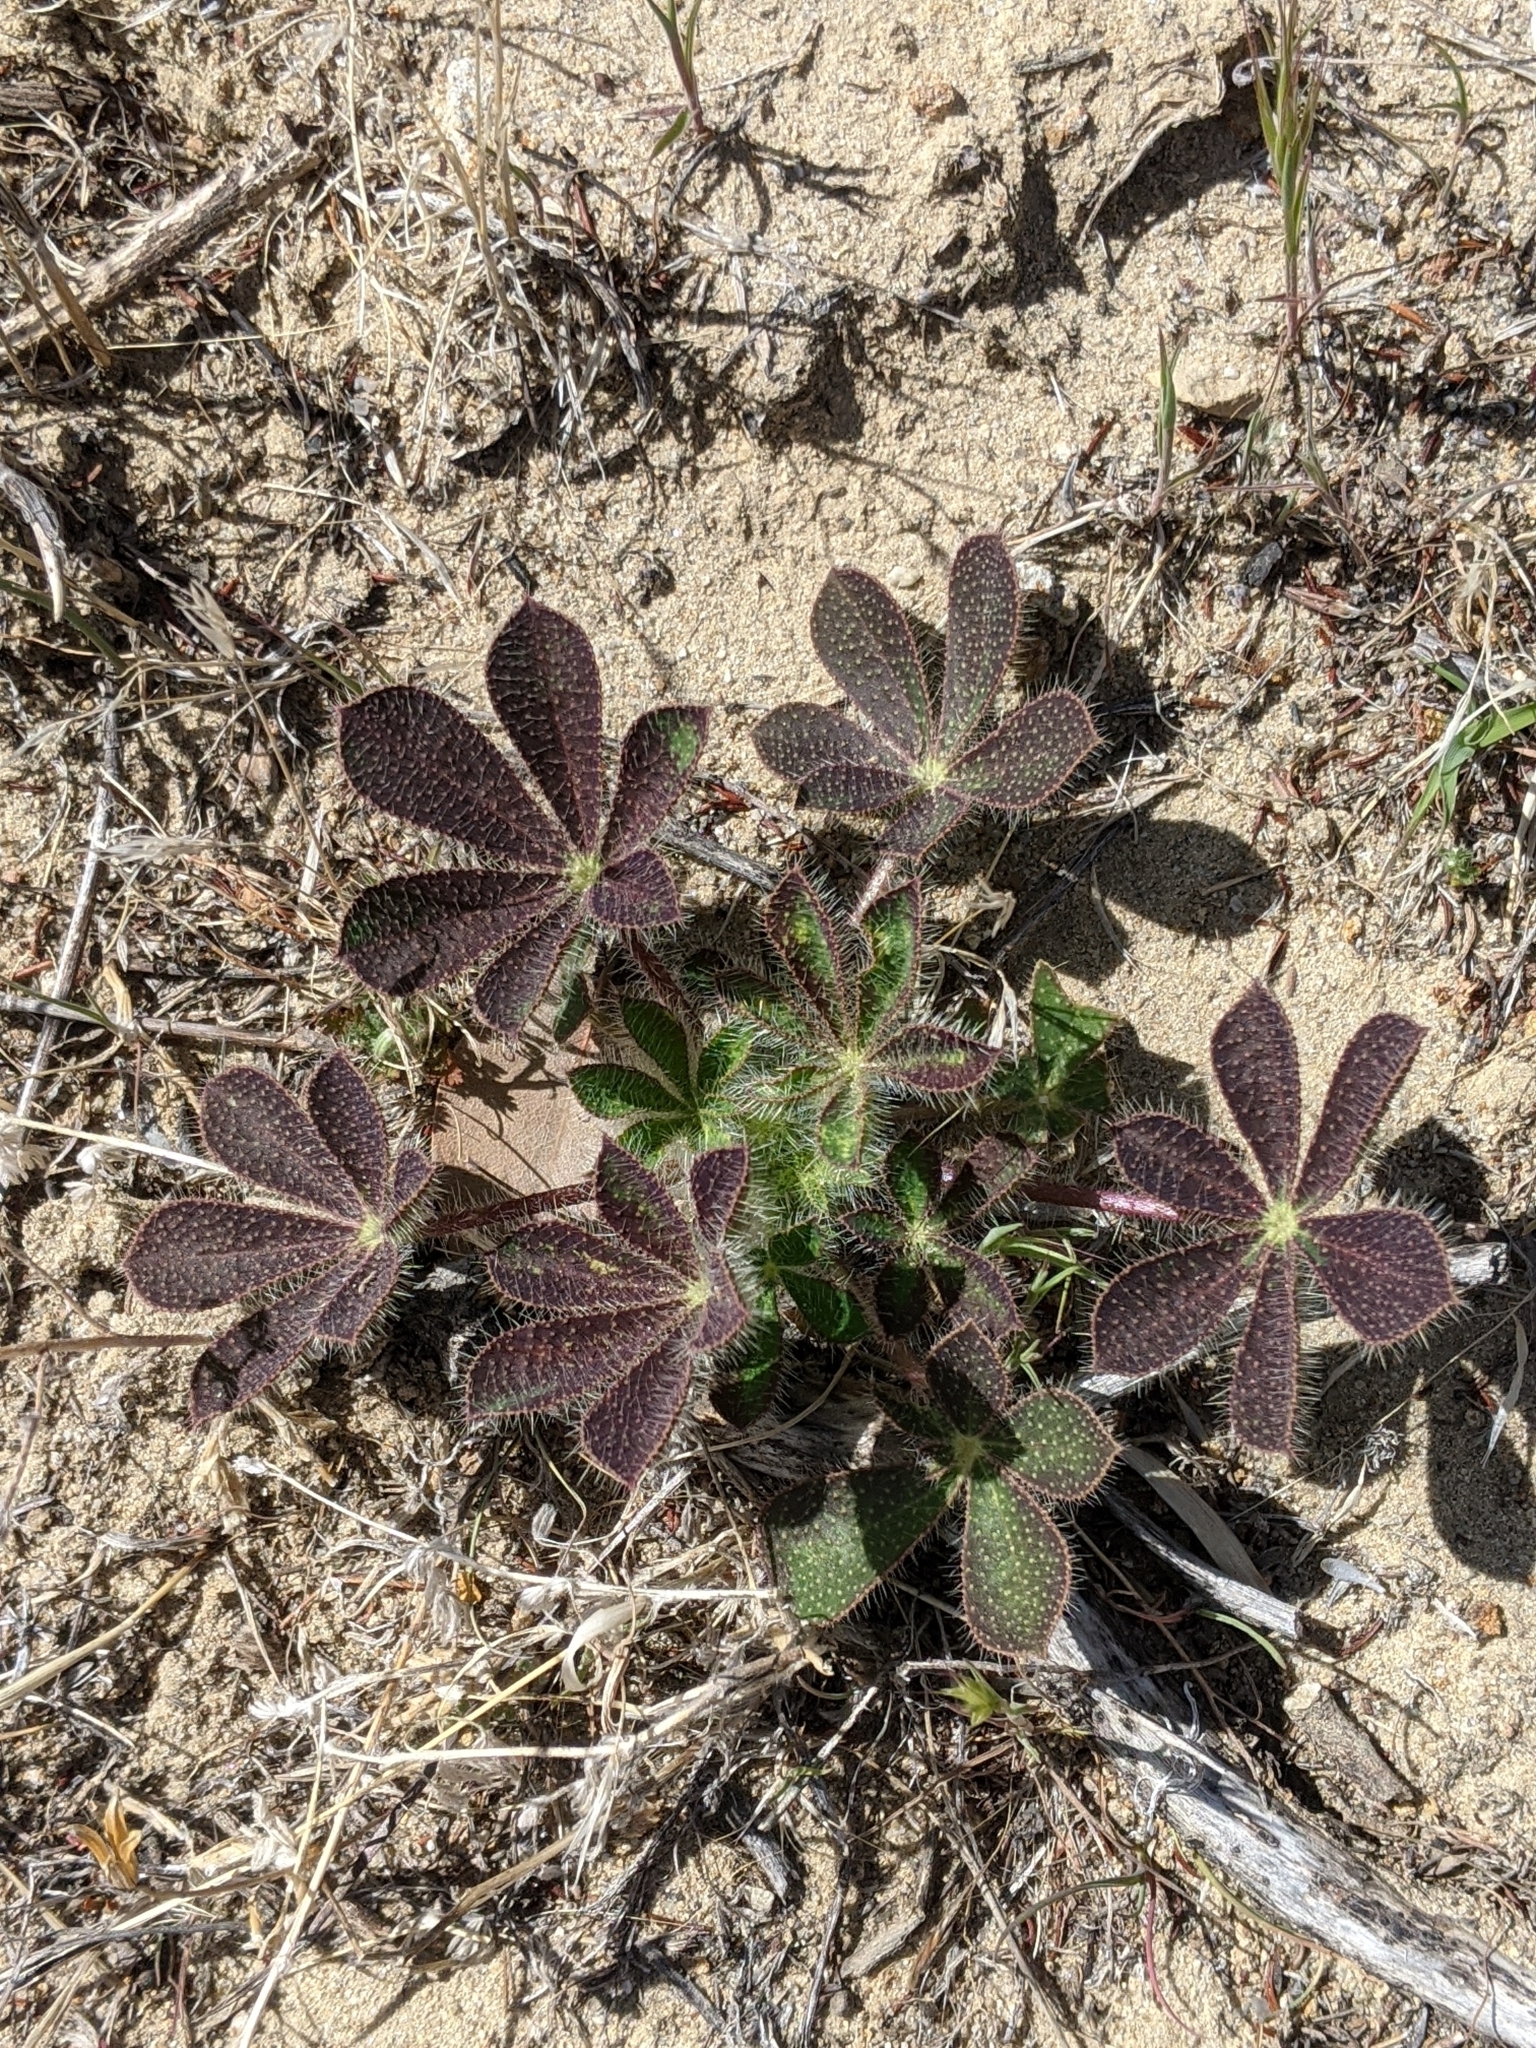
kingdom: Plantae
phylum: Tracheophyta
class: Magnoliopsida
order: Fabales
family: Fabaceae
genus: Lupinus
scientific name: Lupinus hirsutissimus
